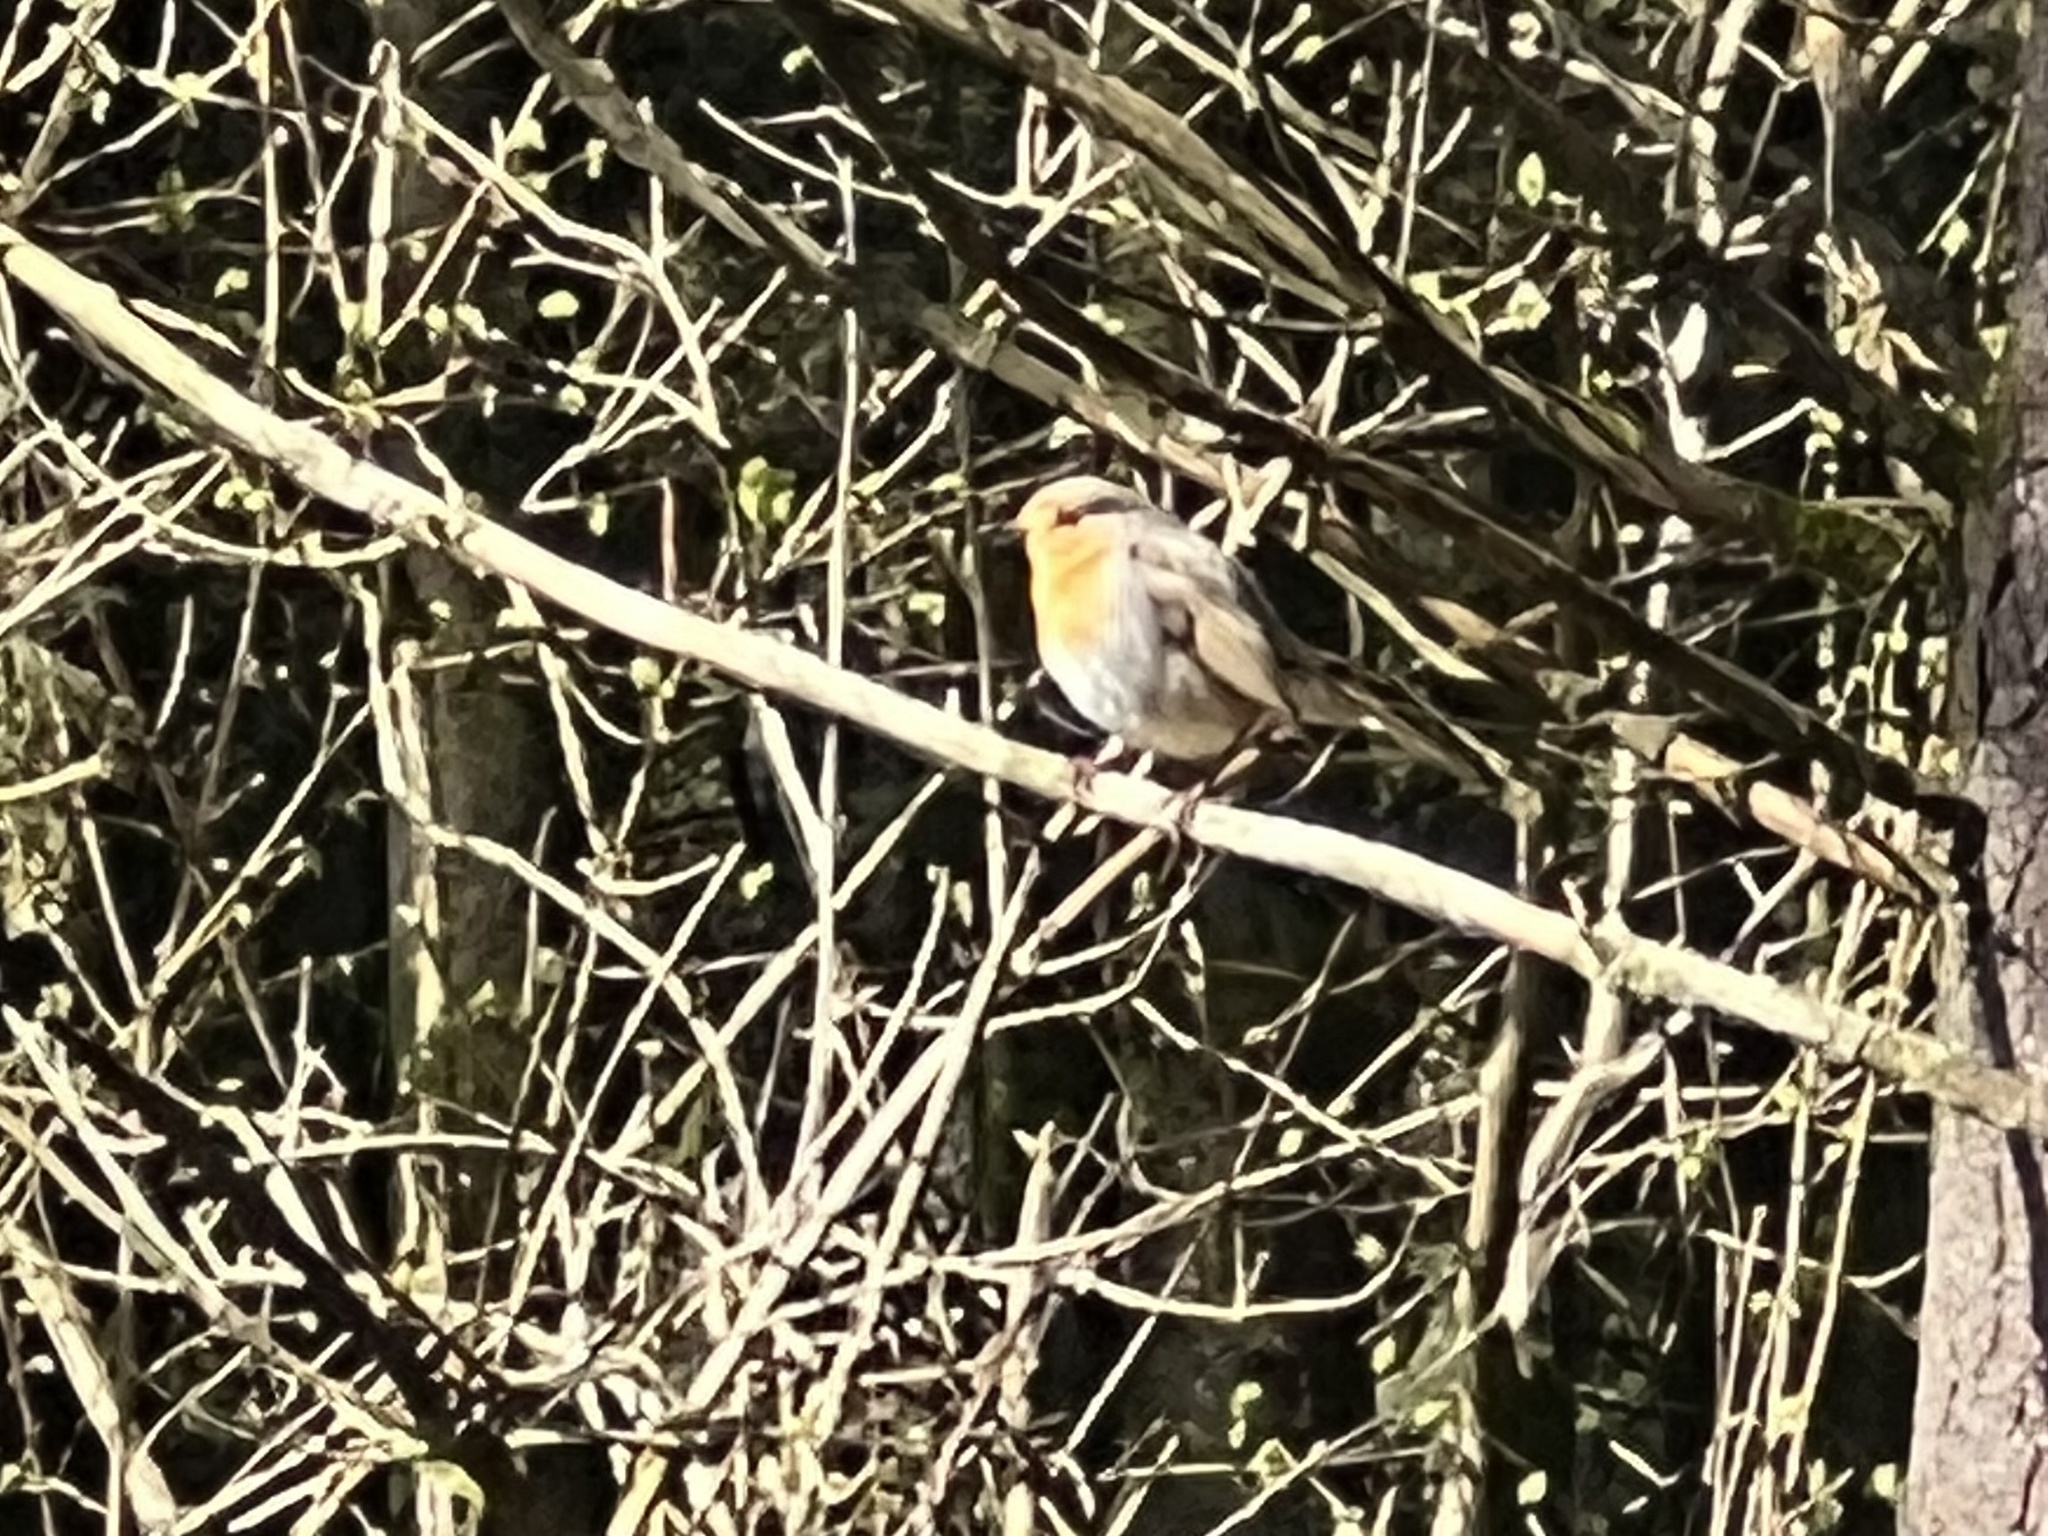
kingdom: Animalia
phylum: Chordata
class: Aves
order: Passeriformes
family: Muscicapidae
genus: Erithacus
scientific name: Erithacus rubecula
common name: European robin
